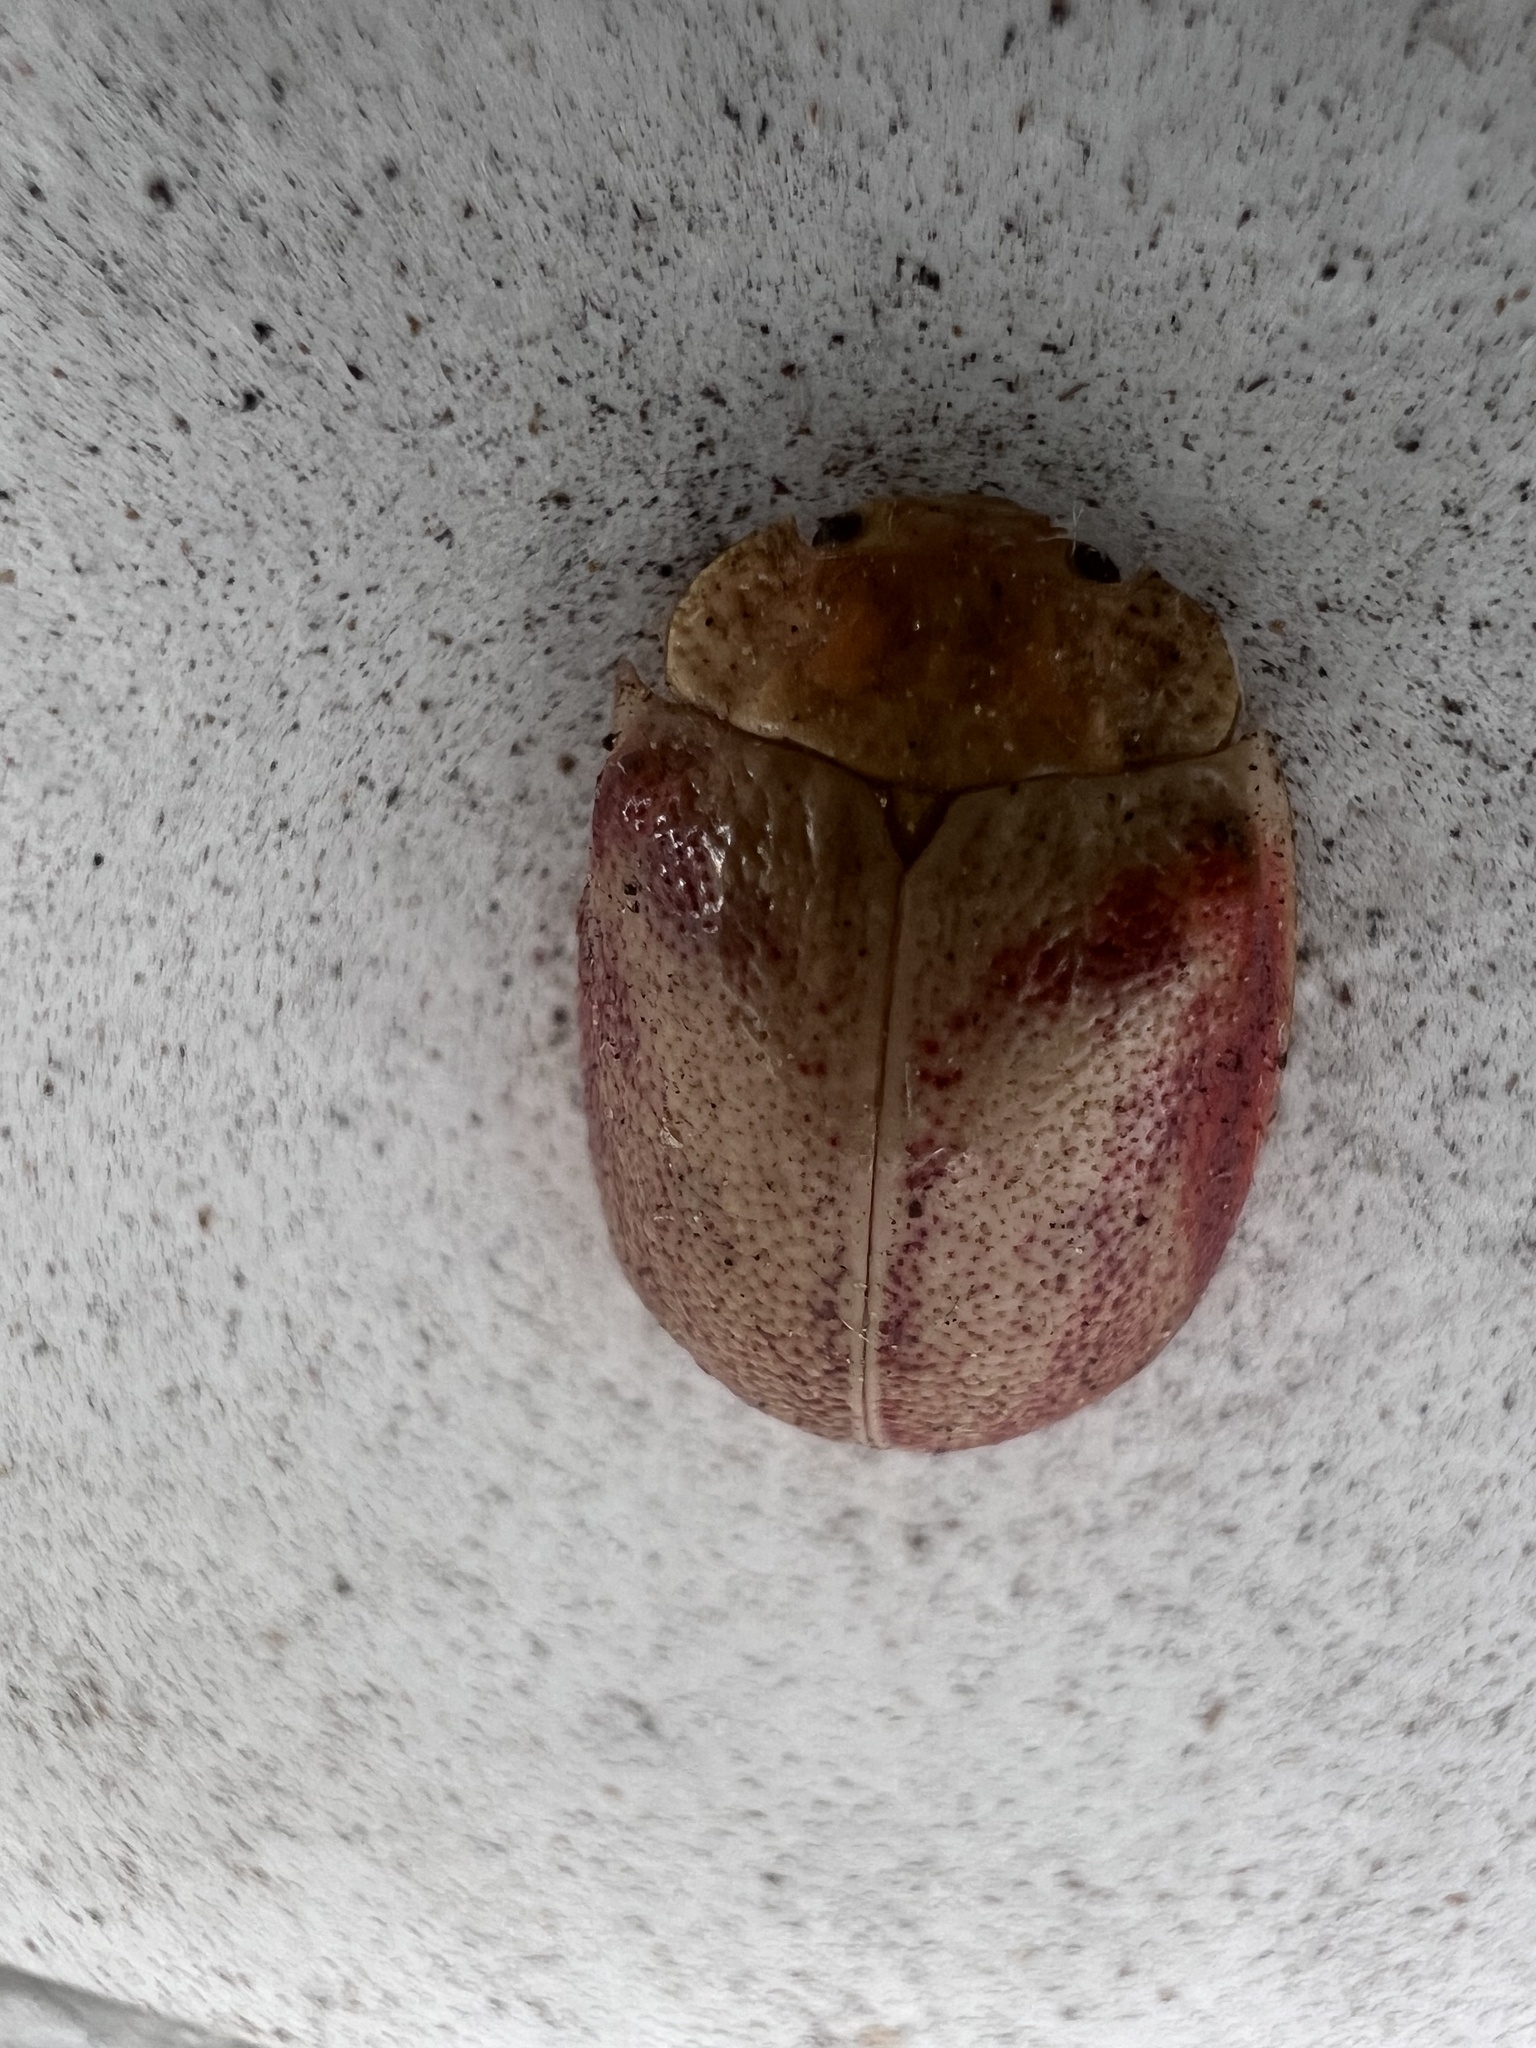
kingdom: Animalia
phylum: Arthropoda
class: Insecta
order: Coleoptera
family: Chrysomelidae
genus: Paropsis
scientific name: Paropsis
